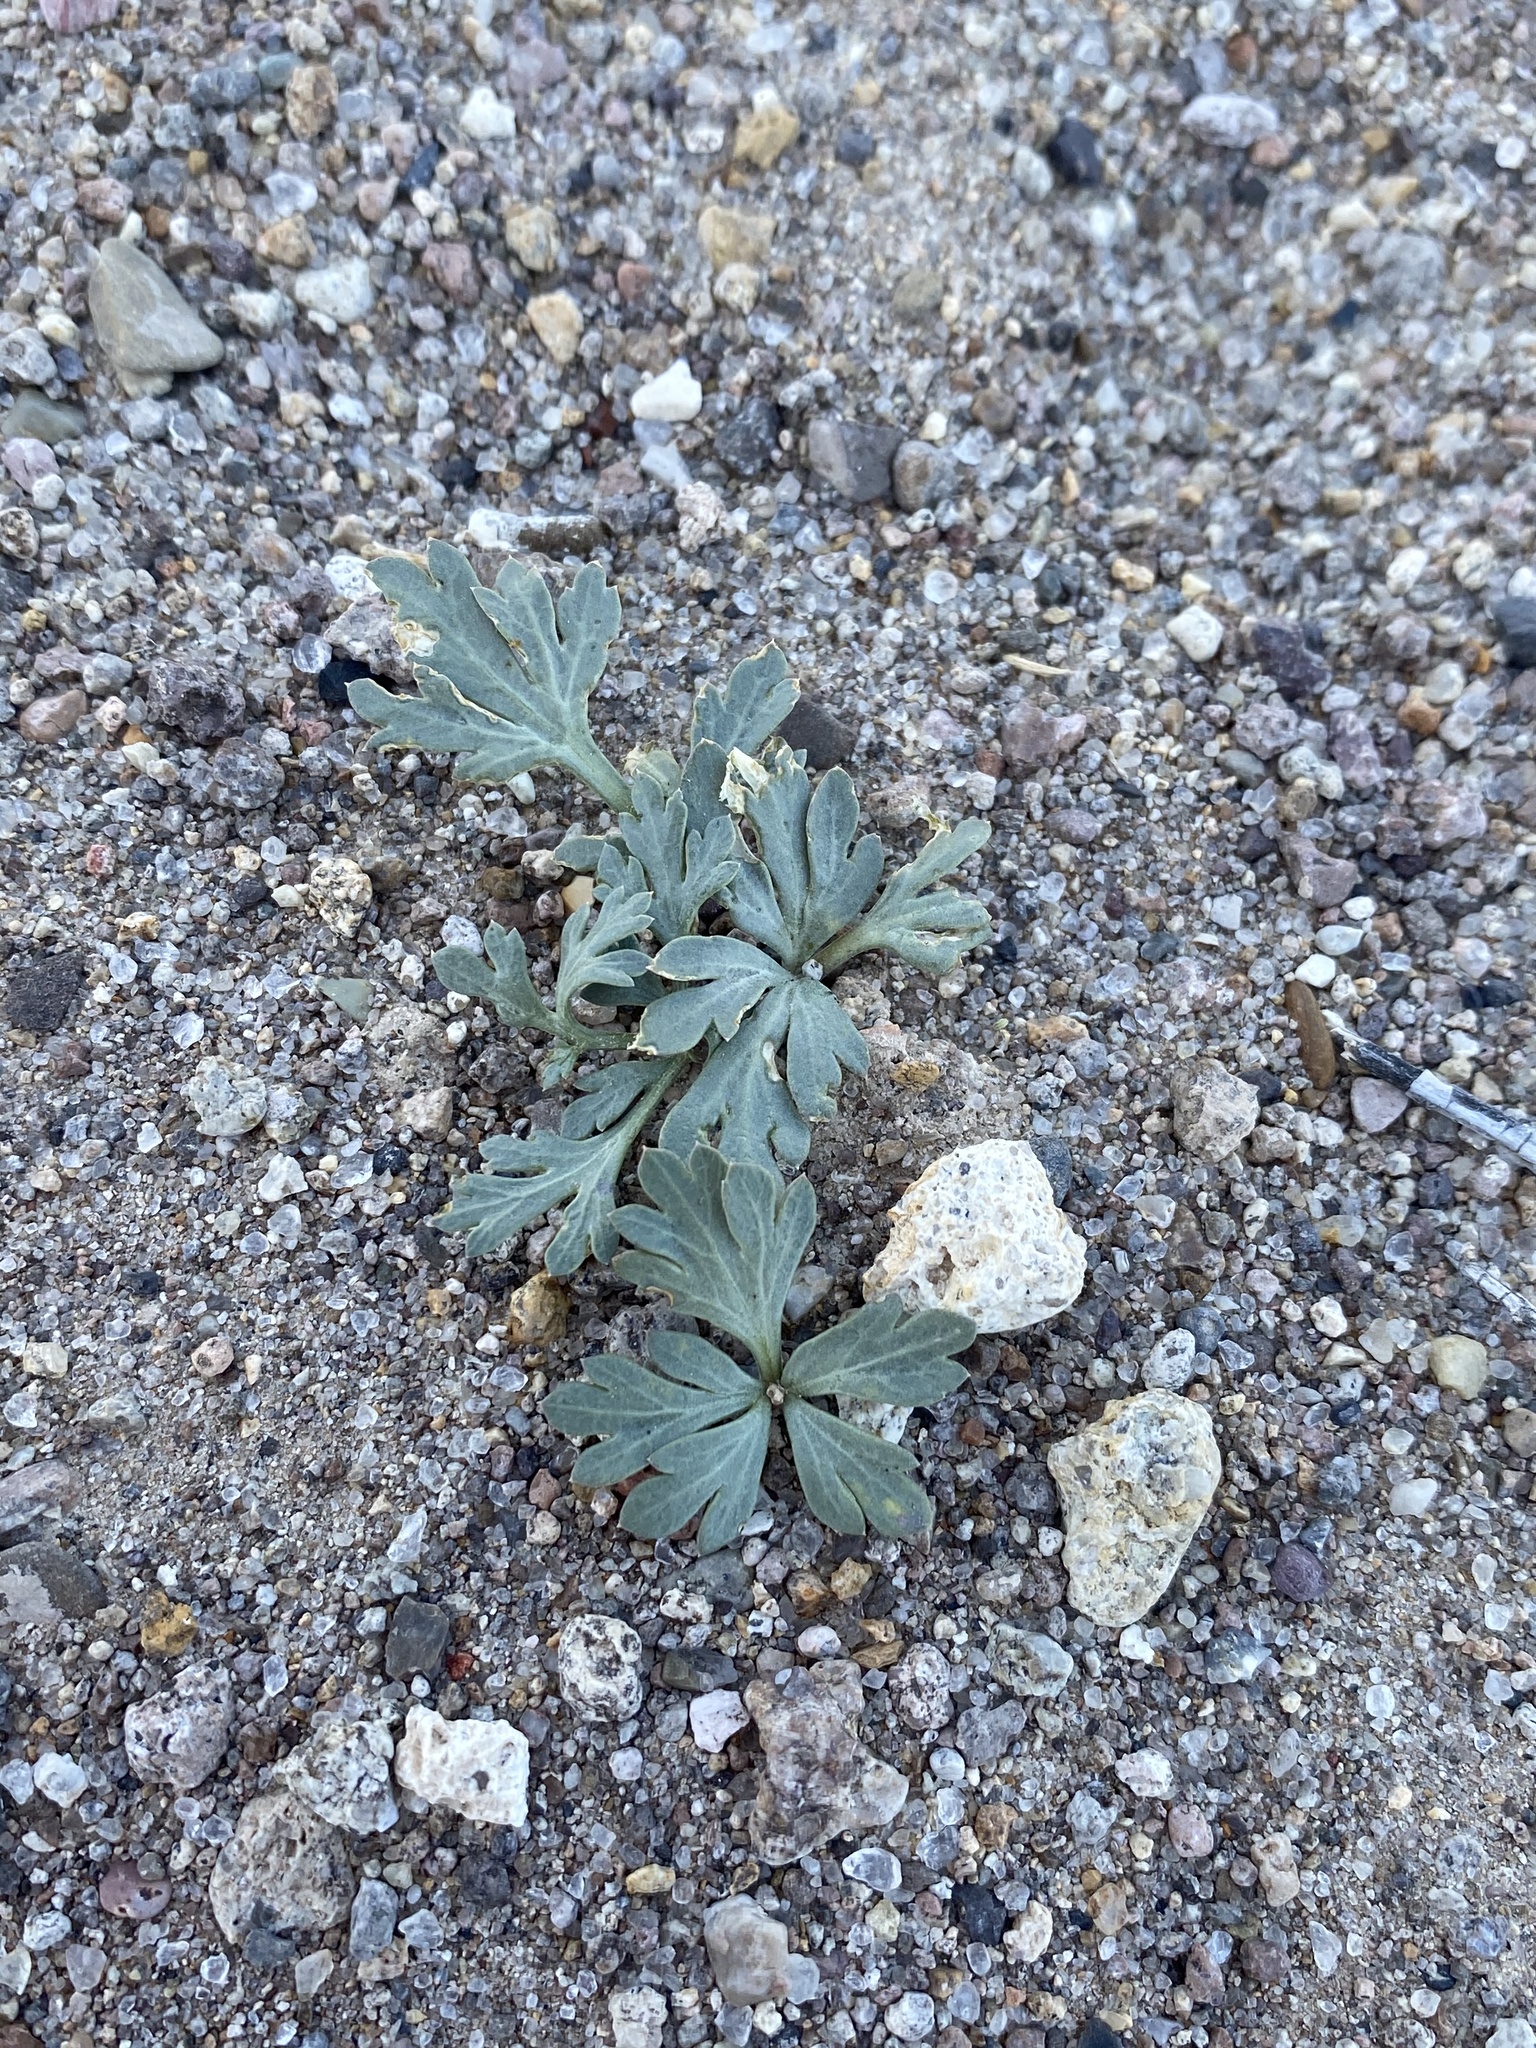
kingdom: Plantae
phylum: Tracheophyta
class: Magnoliopsida
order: Apiales
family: Apiaceae
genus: Cymopterus
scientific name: Cymopterus ripleyi
